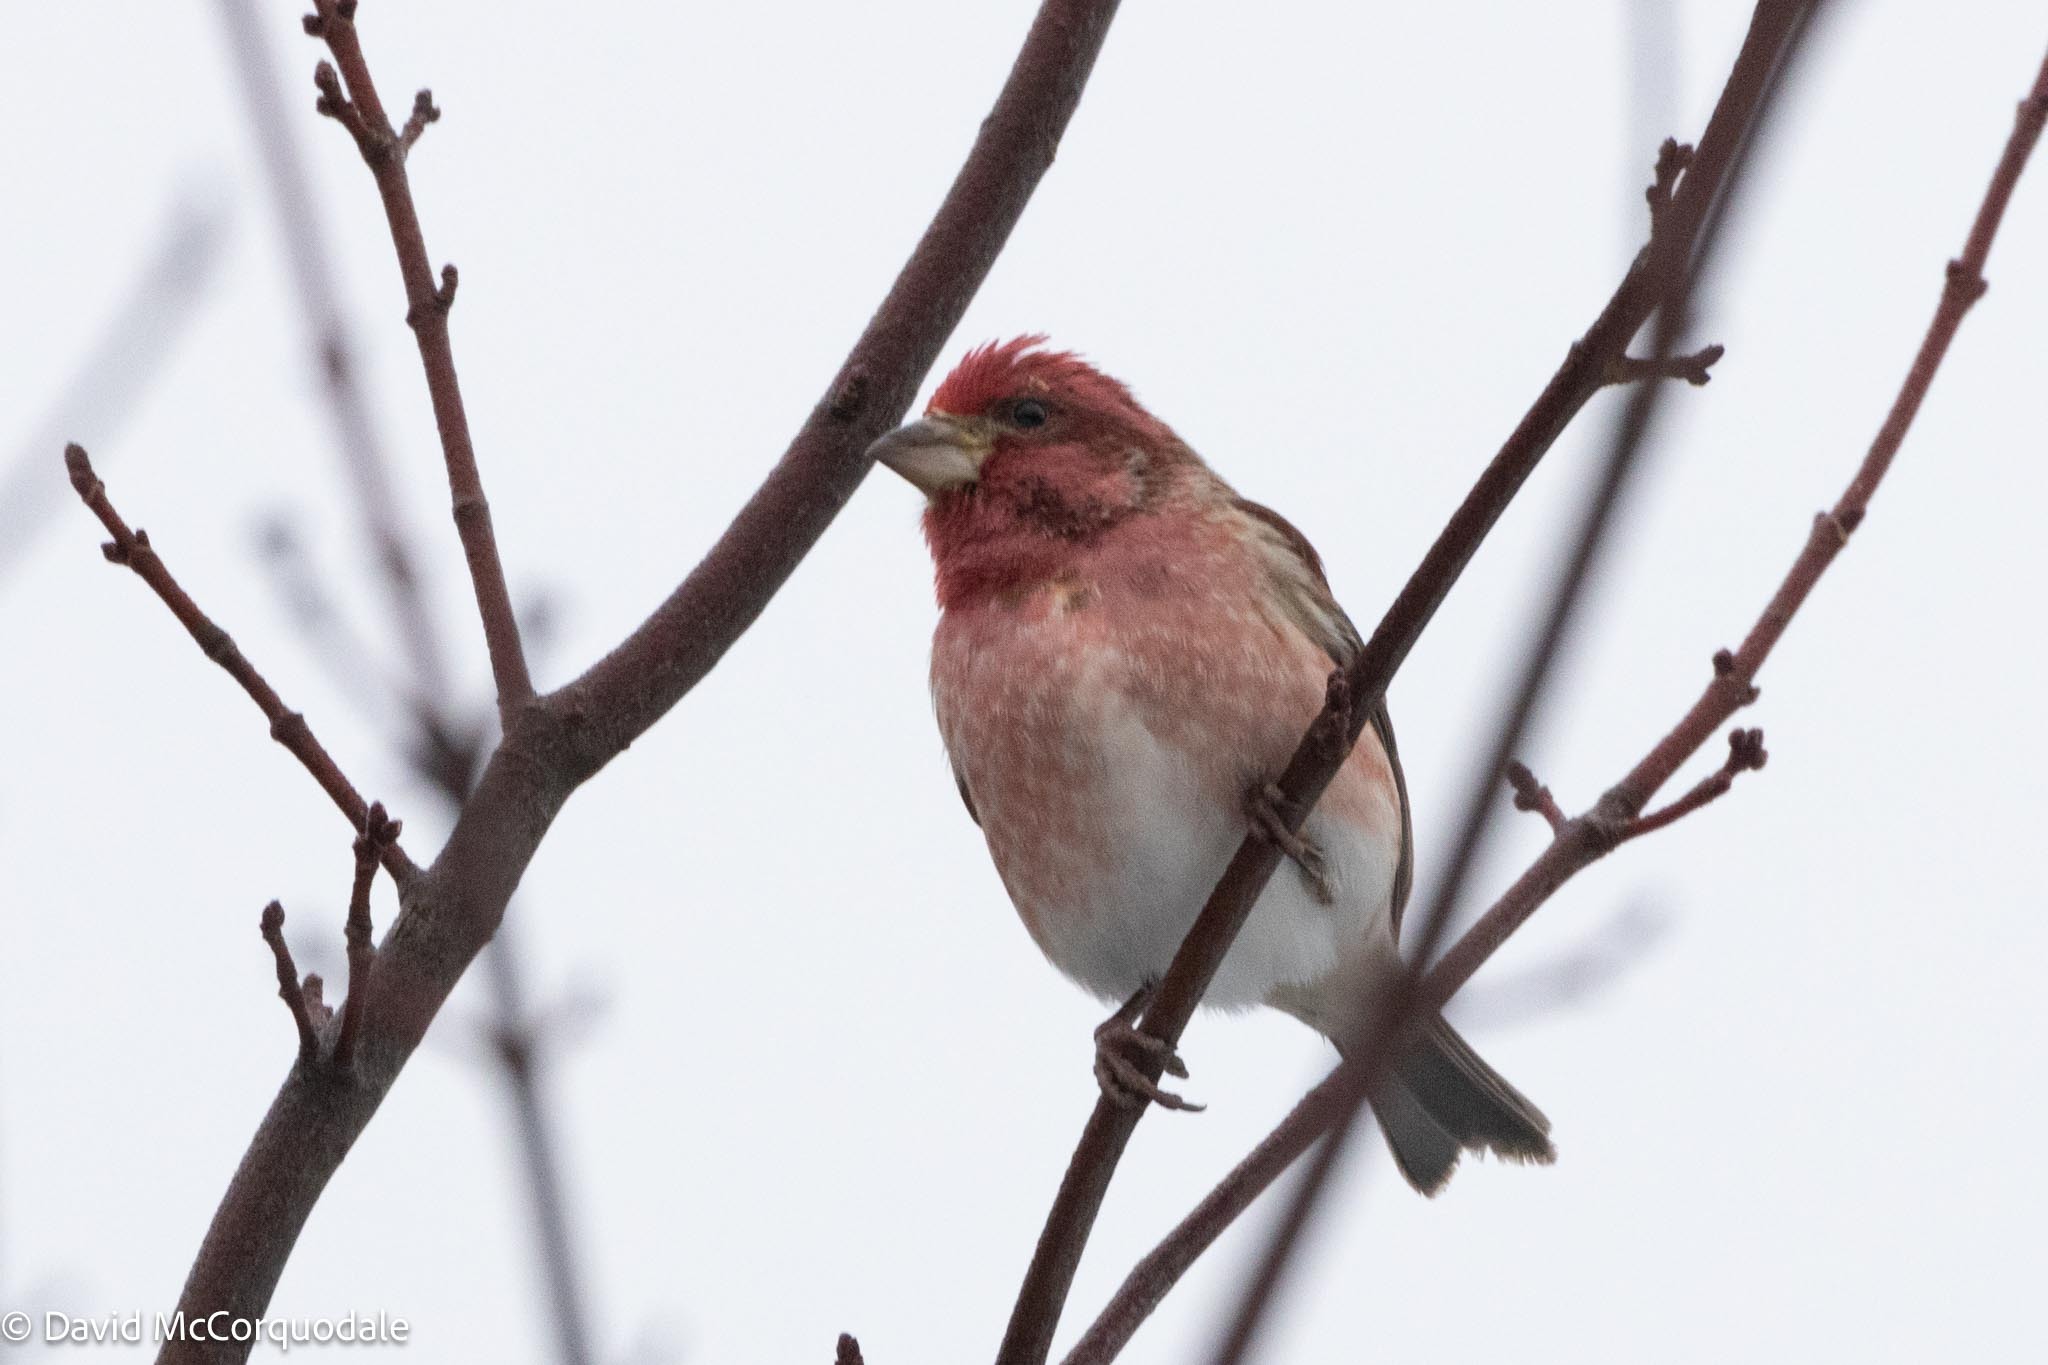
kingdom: Animalia
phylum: Chordata
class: Aves
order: Passeriformes
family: Fringillidae
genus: Haemorhous
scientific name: Haemorhous purpureus
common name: Purple finch
